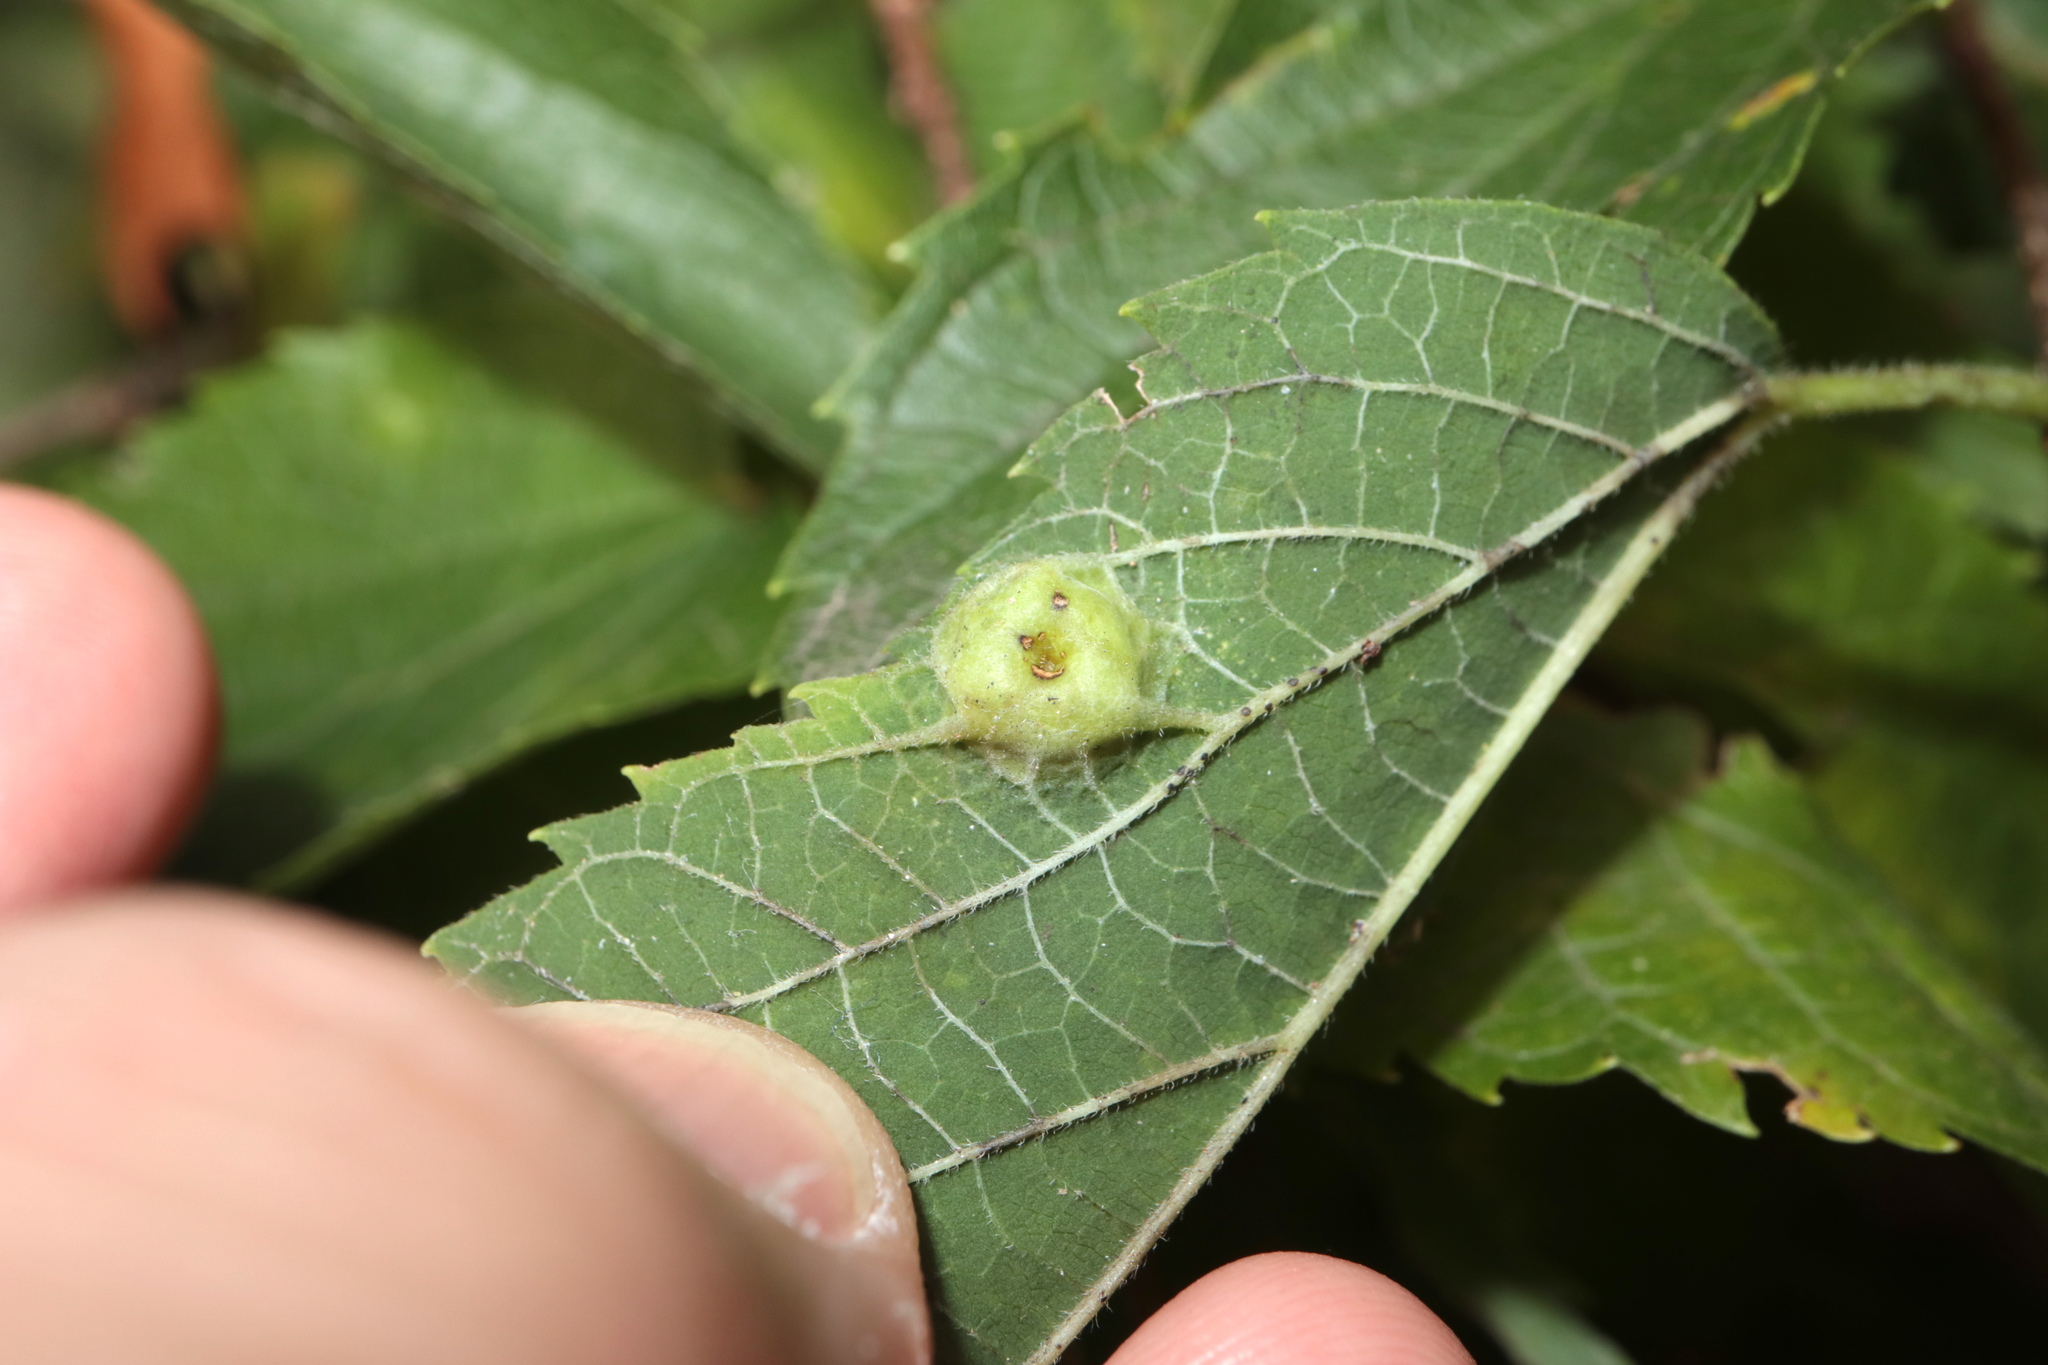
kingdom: Animalia
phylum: Arthropoda
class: Insecta
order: Hemiptera
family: Aphalaridae
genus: Pachypsylla
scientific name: Pachypsylla celtidisumbilicus
